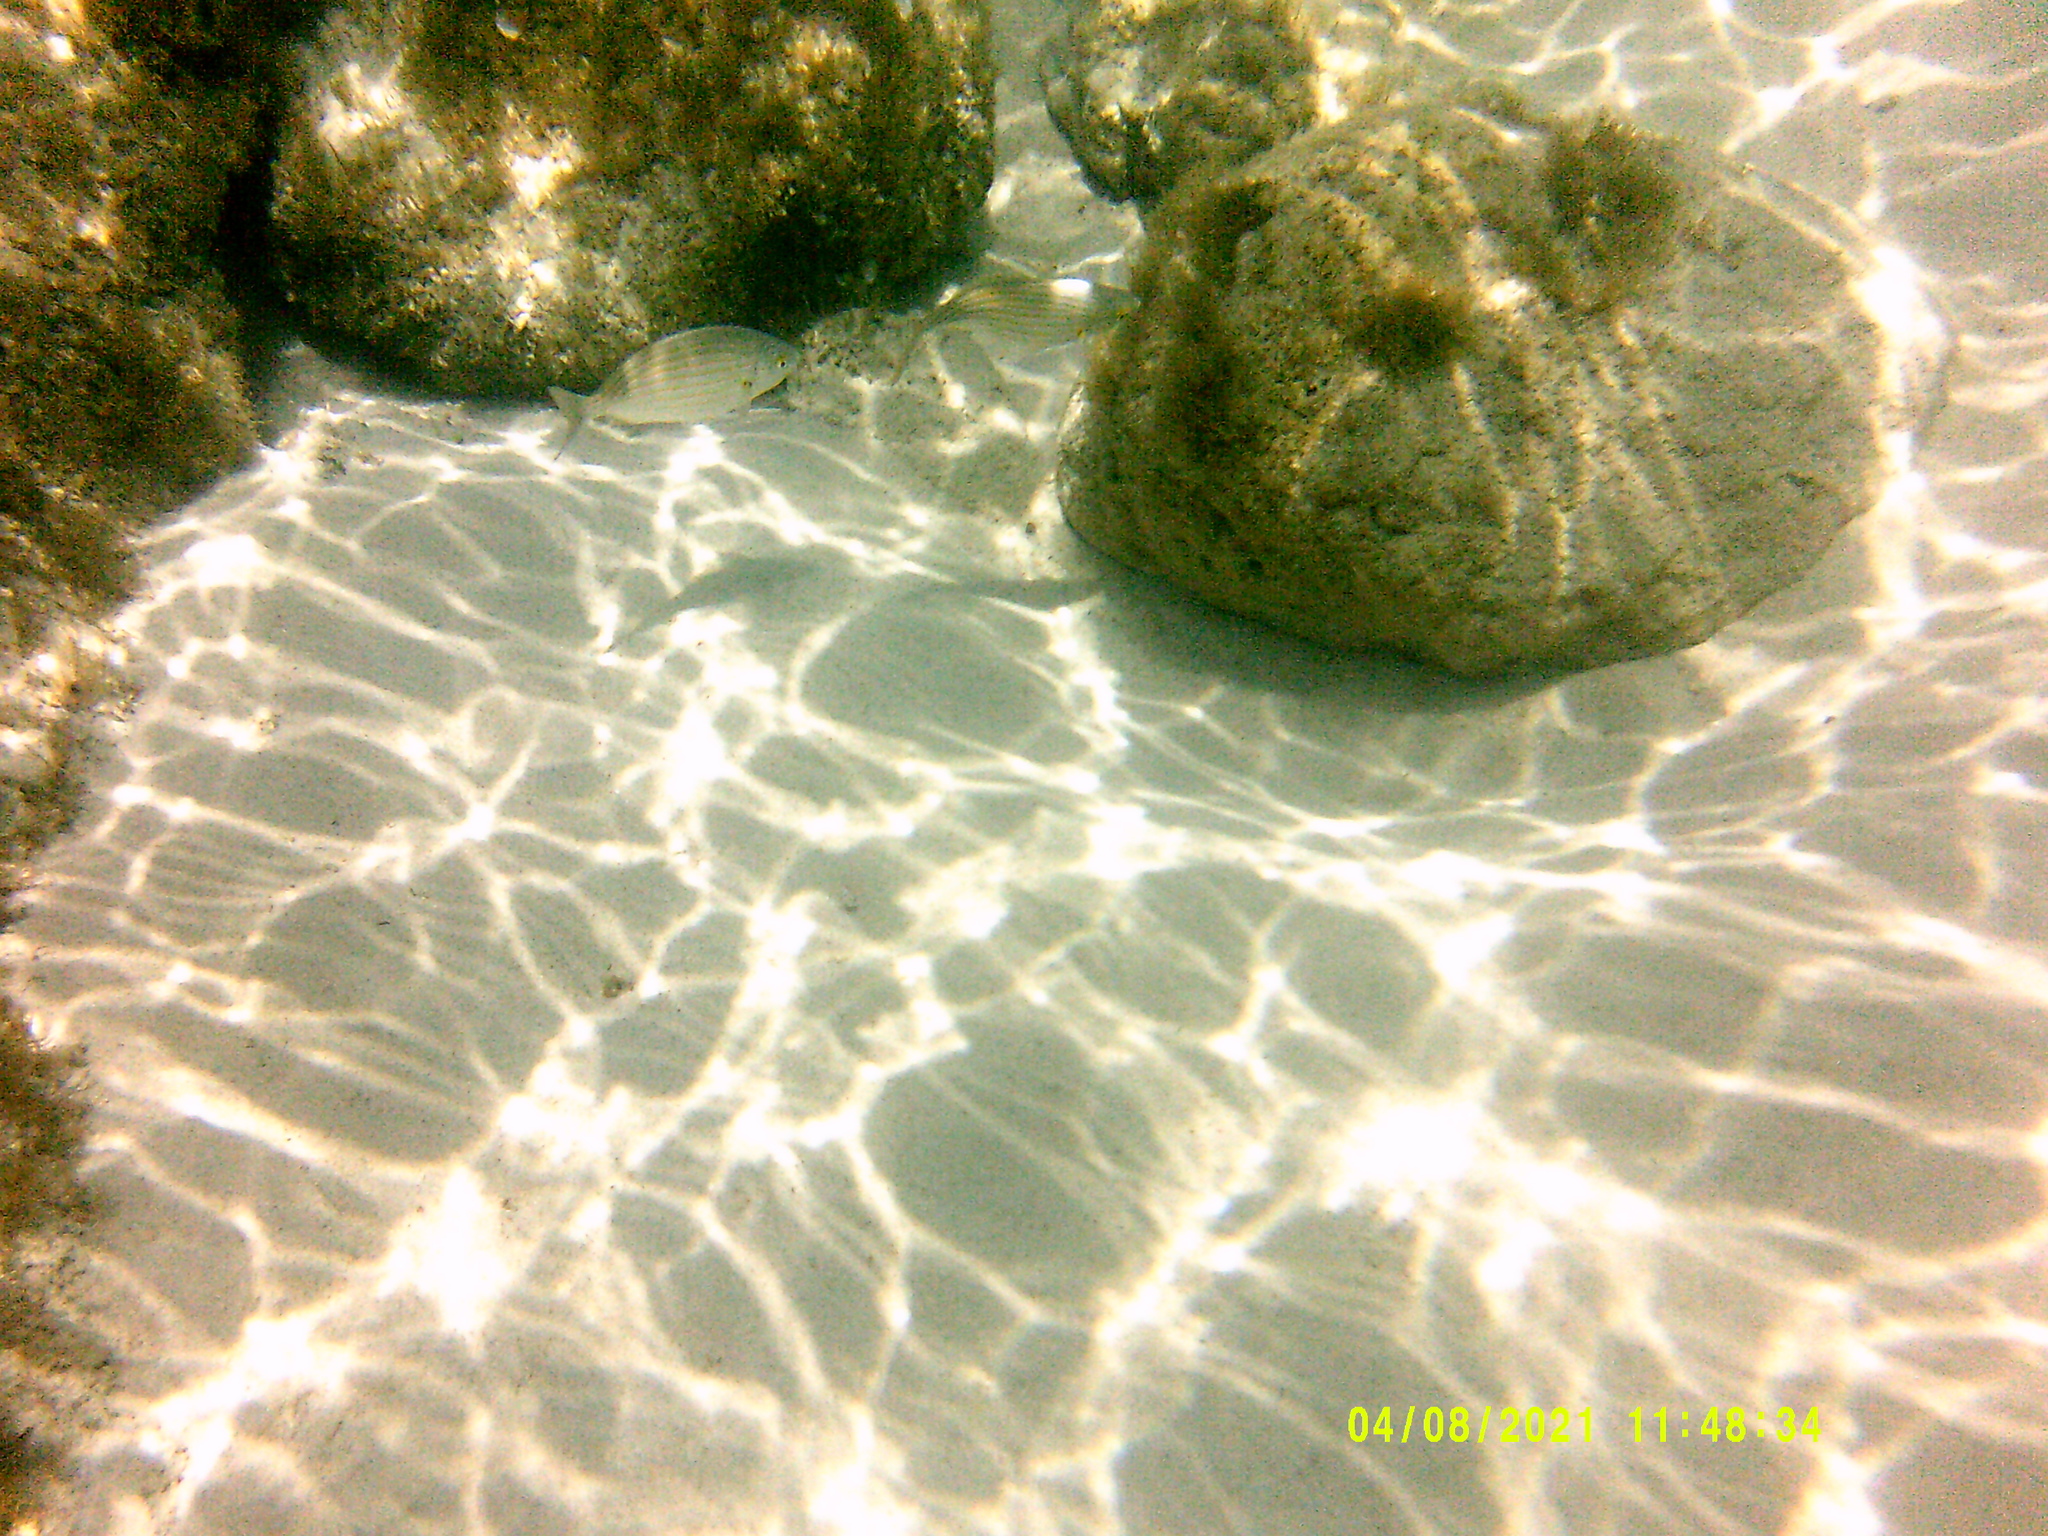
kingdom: Animalia
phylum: Chordata
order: Perciformes
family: Sparidae
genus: Sarpa
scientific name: Sarpa salpa
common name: Salema
